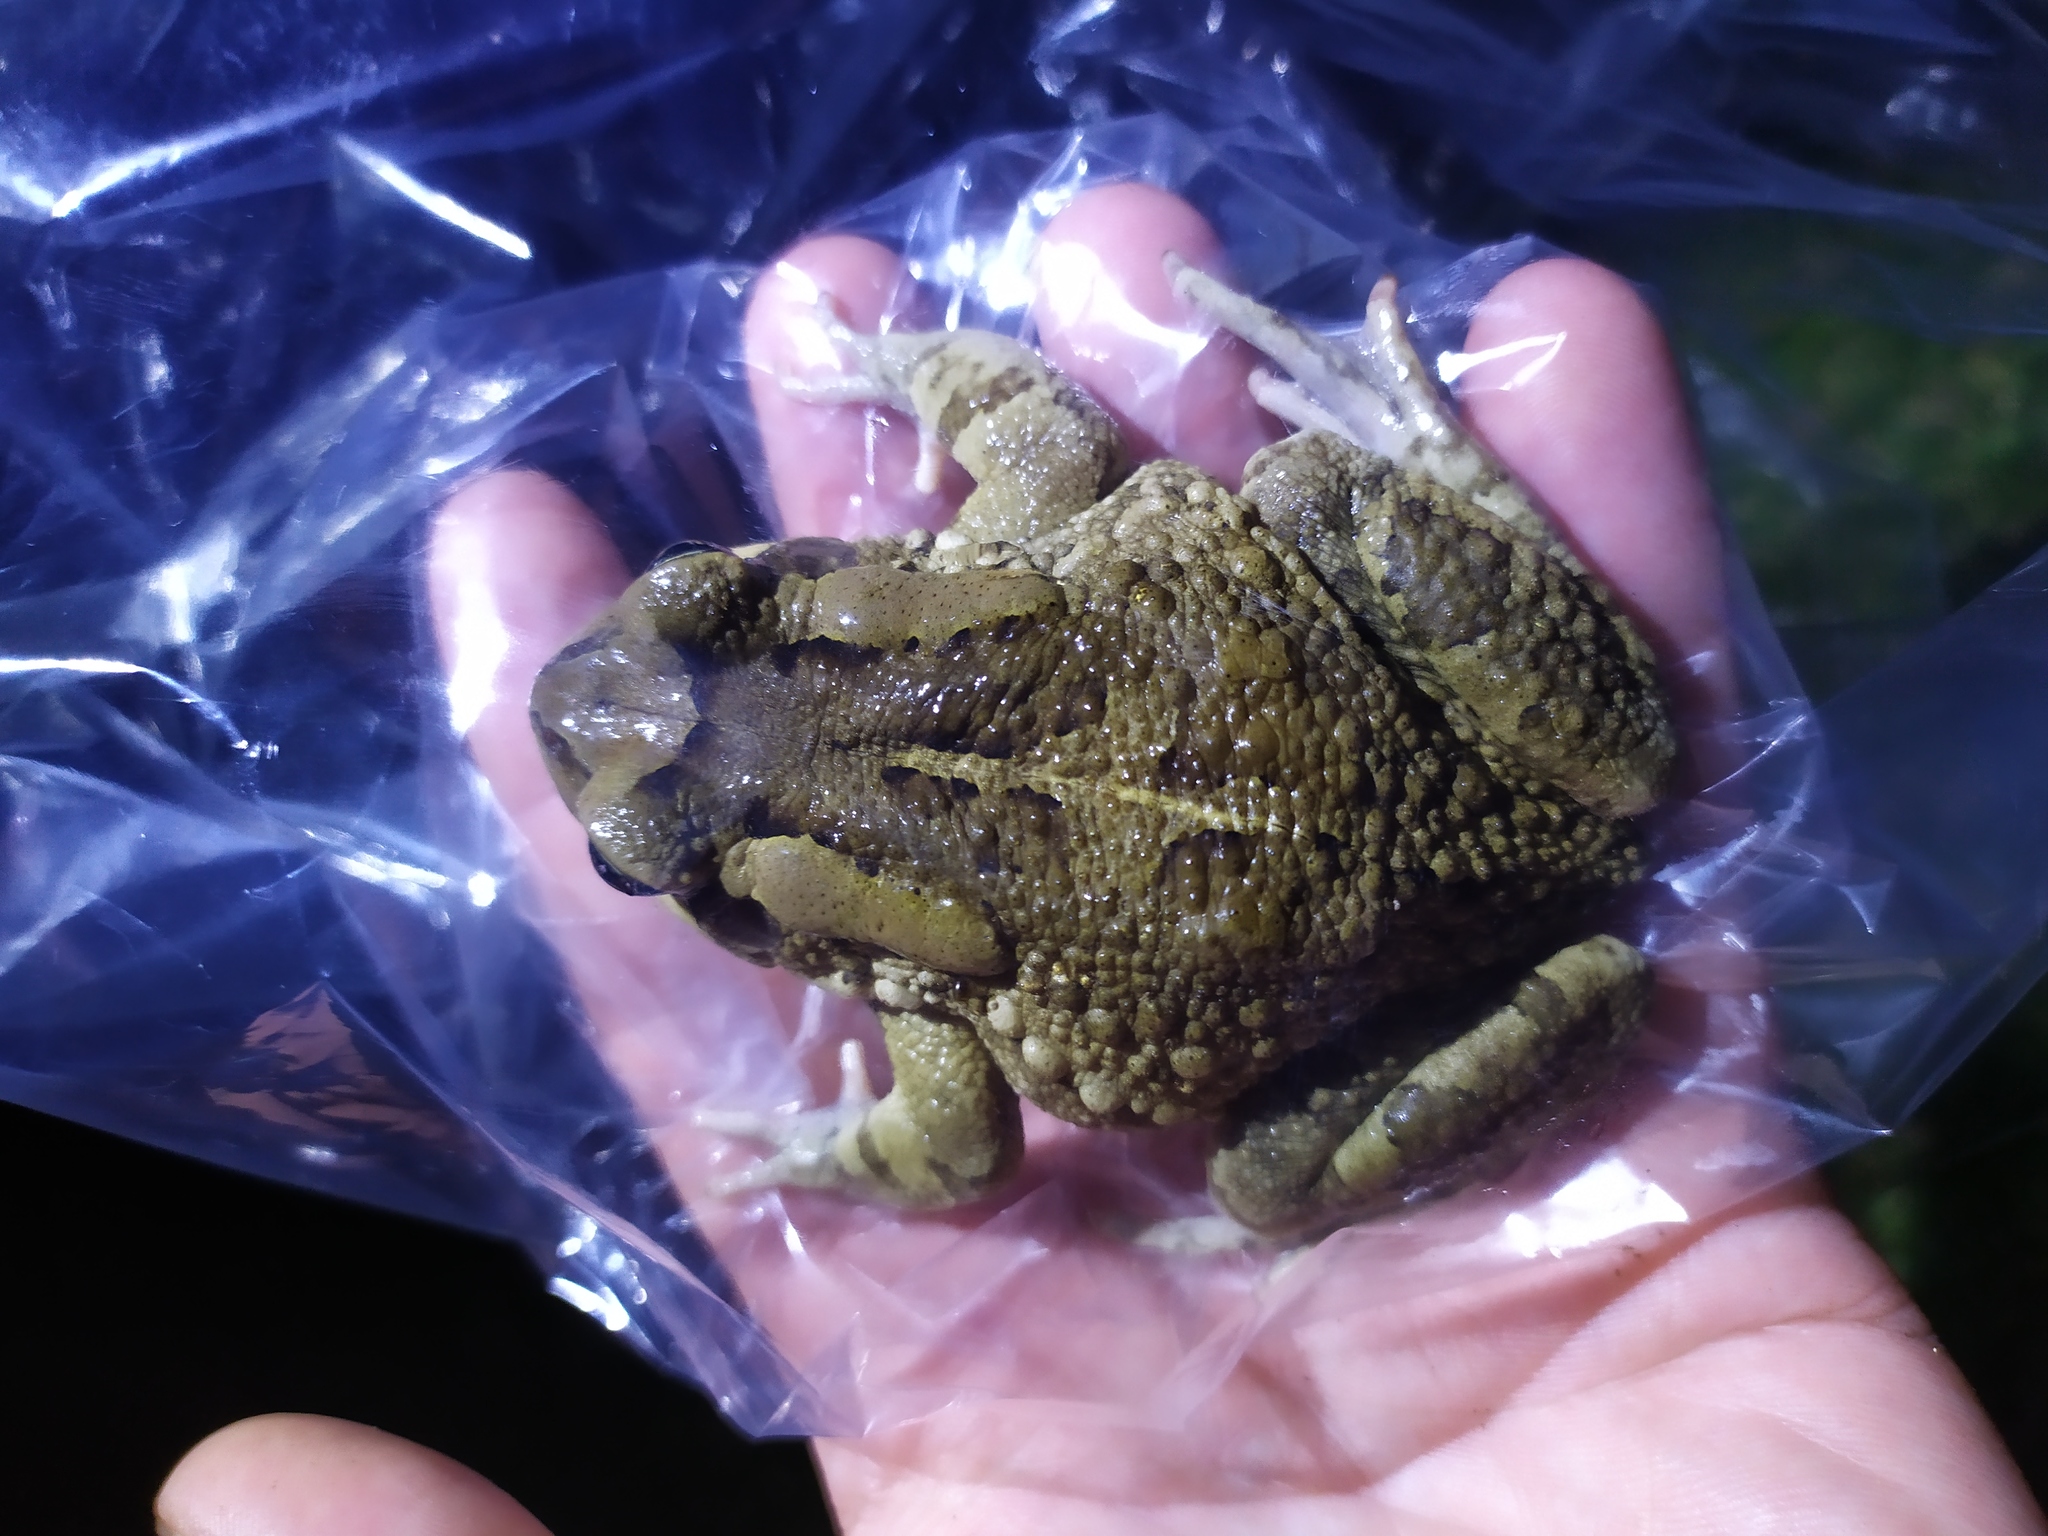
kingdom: Animalia
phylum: Chordata
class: Amphibia
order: Anura
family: Bufonidae
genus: Sclerophrys
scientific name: Sclerophrys capensis
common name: Ranger’s toad
